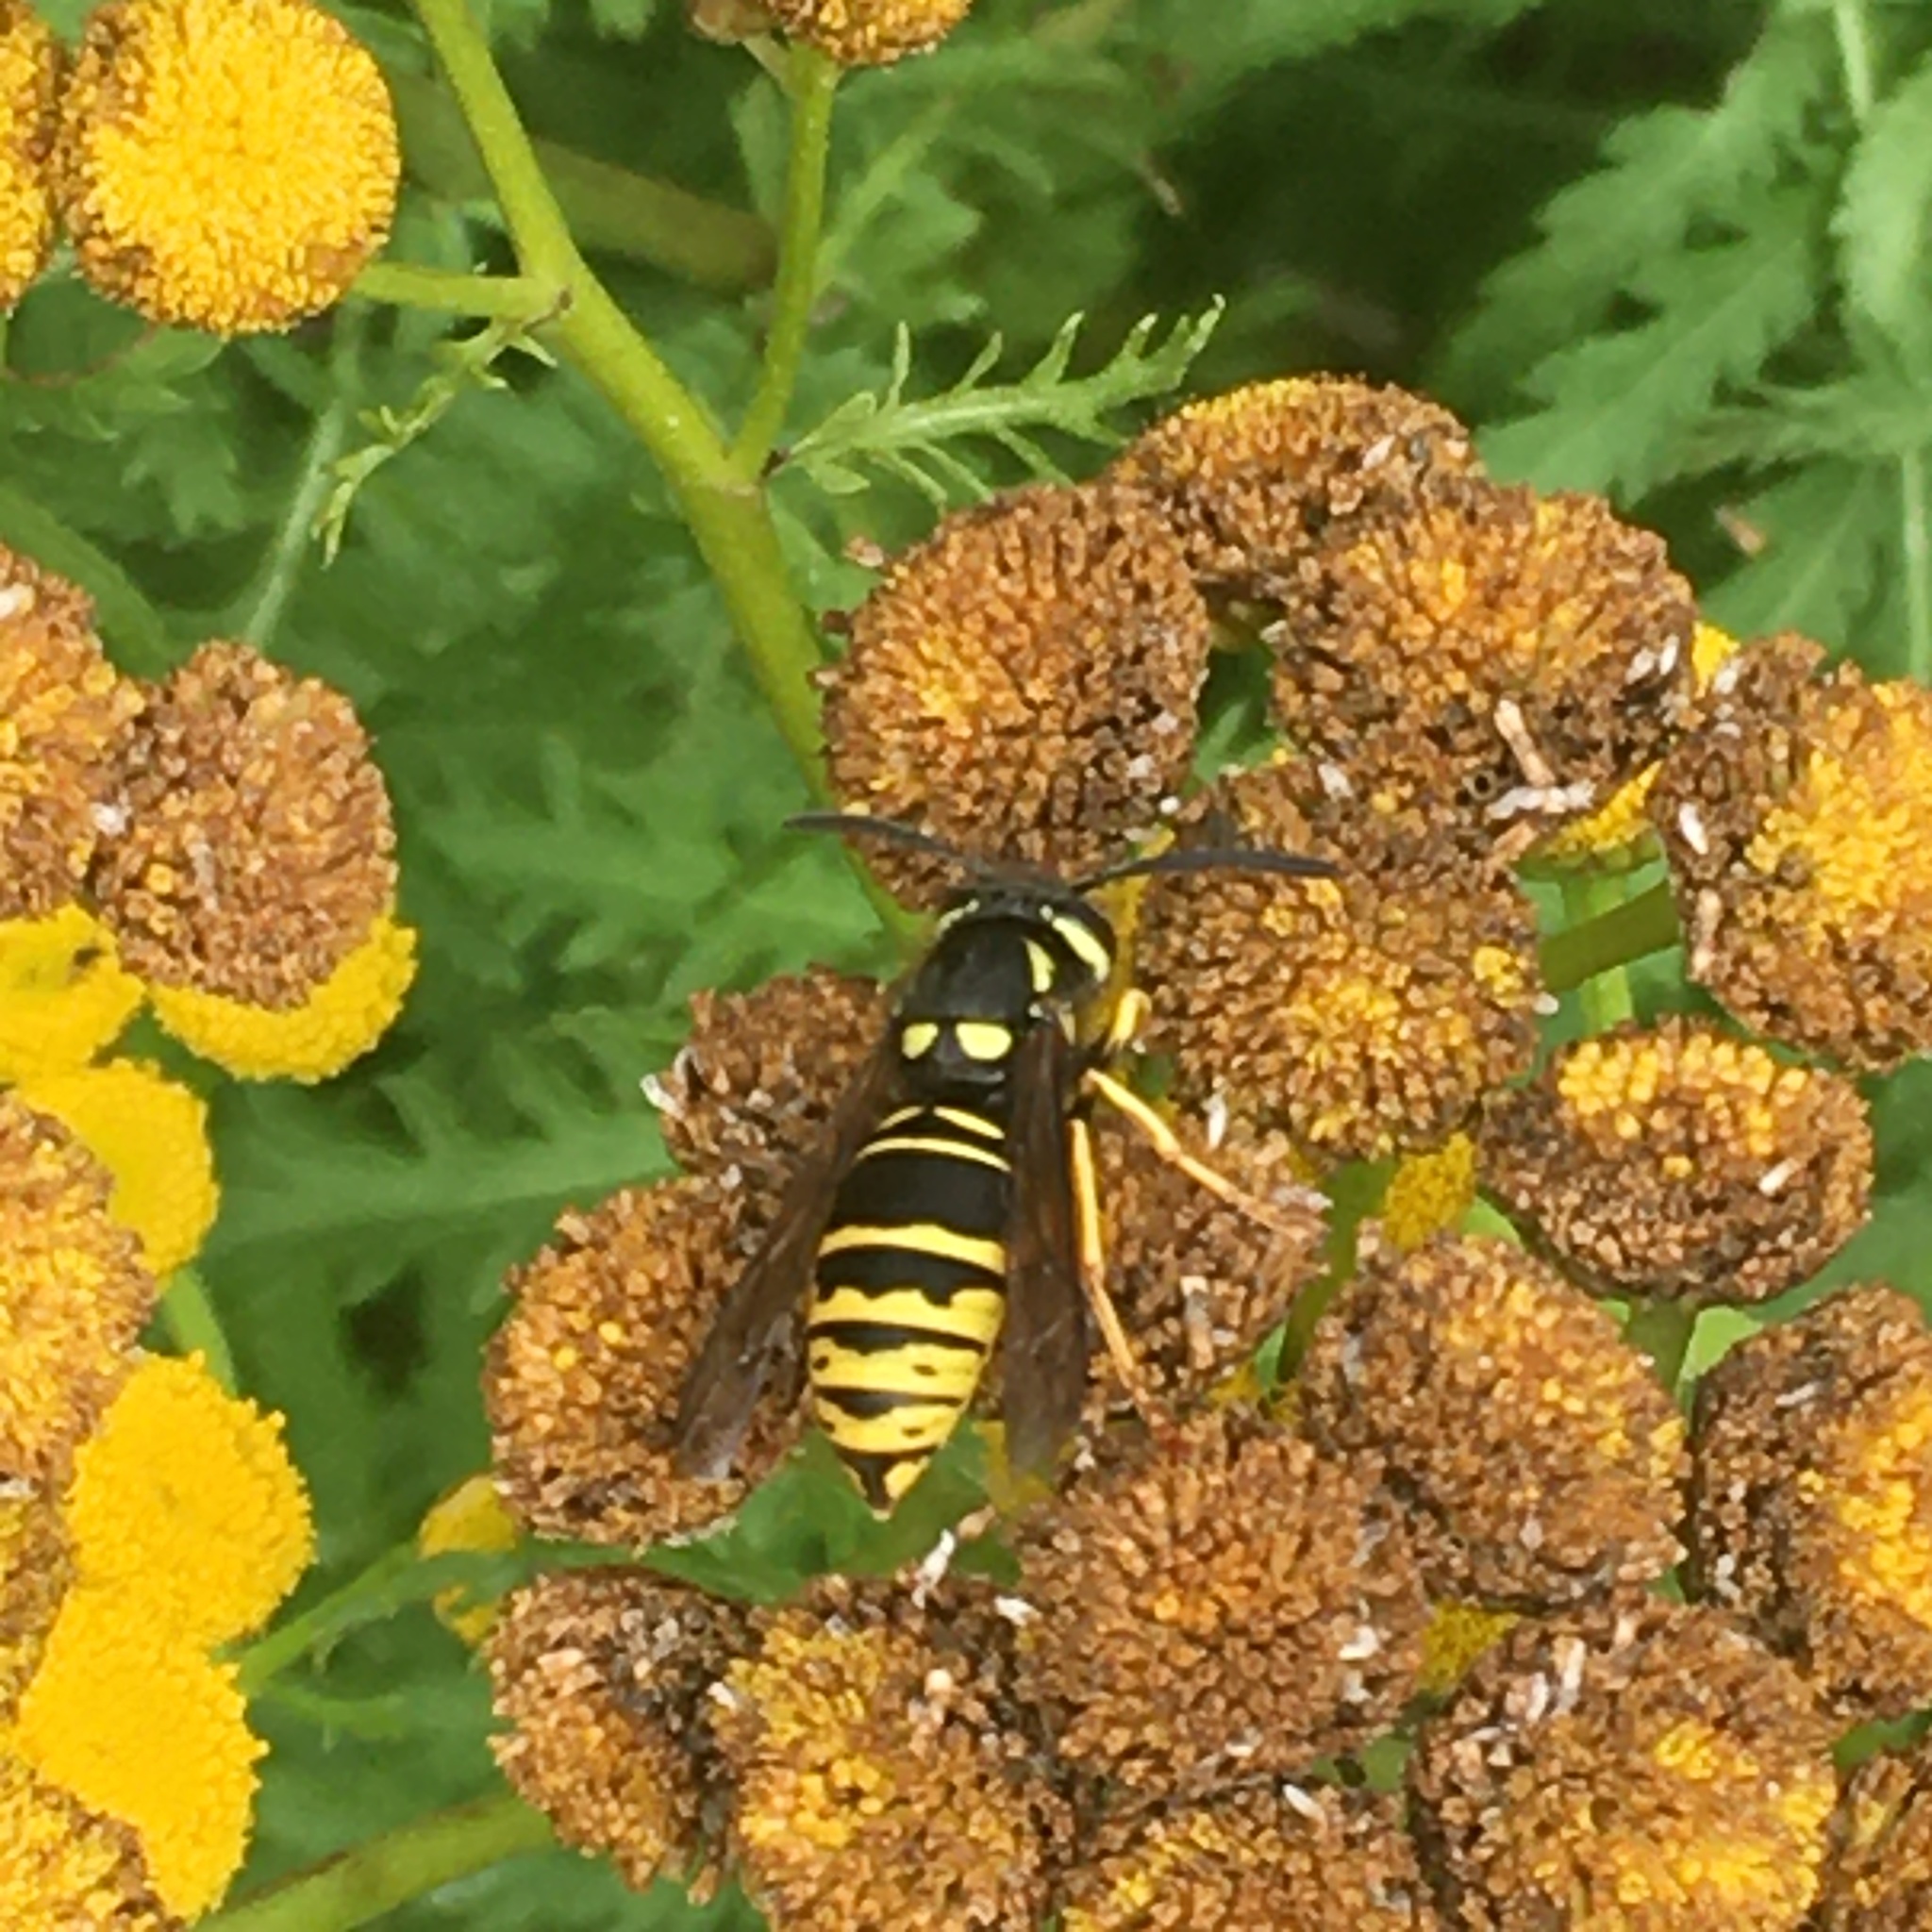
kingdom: Animalia
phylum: Arthropoda
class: Insecta
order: Hymenoptera
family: Vespidae
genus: Vespula
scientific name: Vespula vidua
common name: Widow yellowjacket
